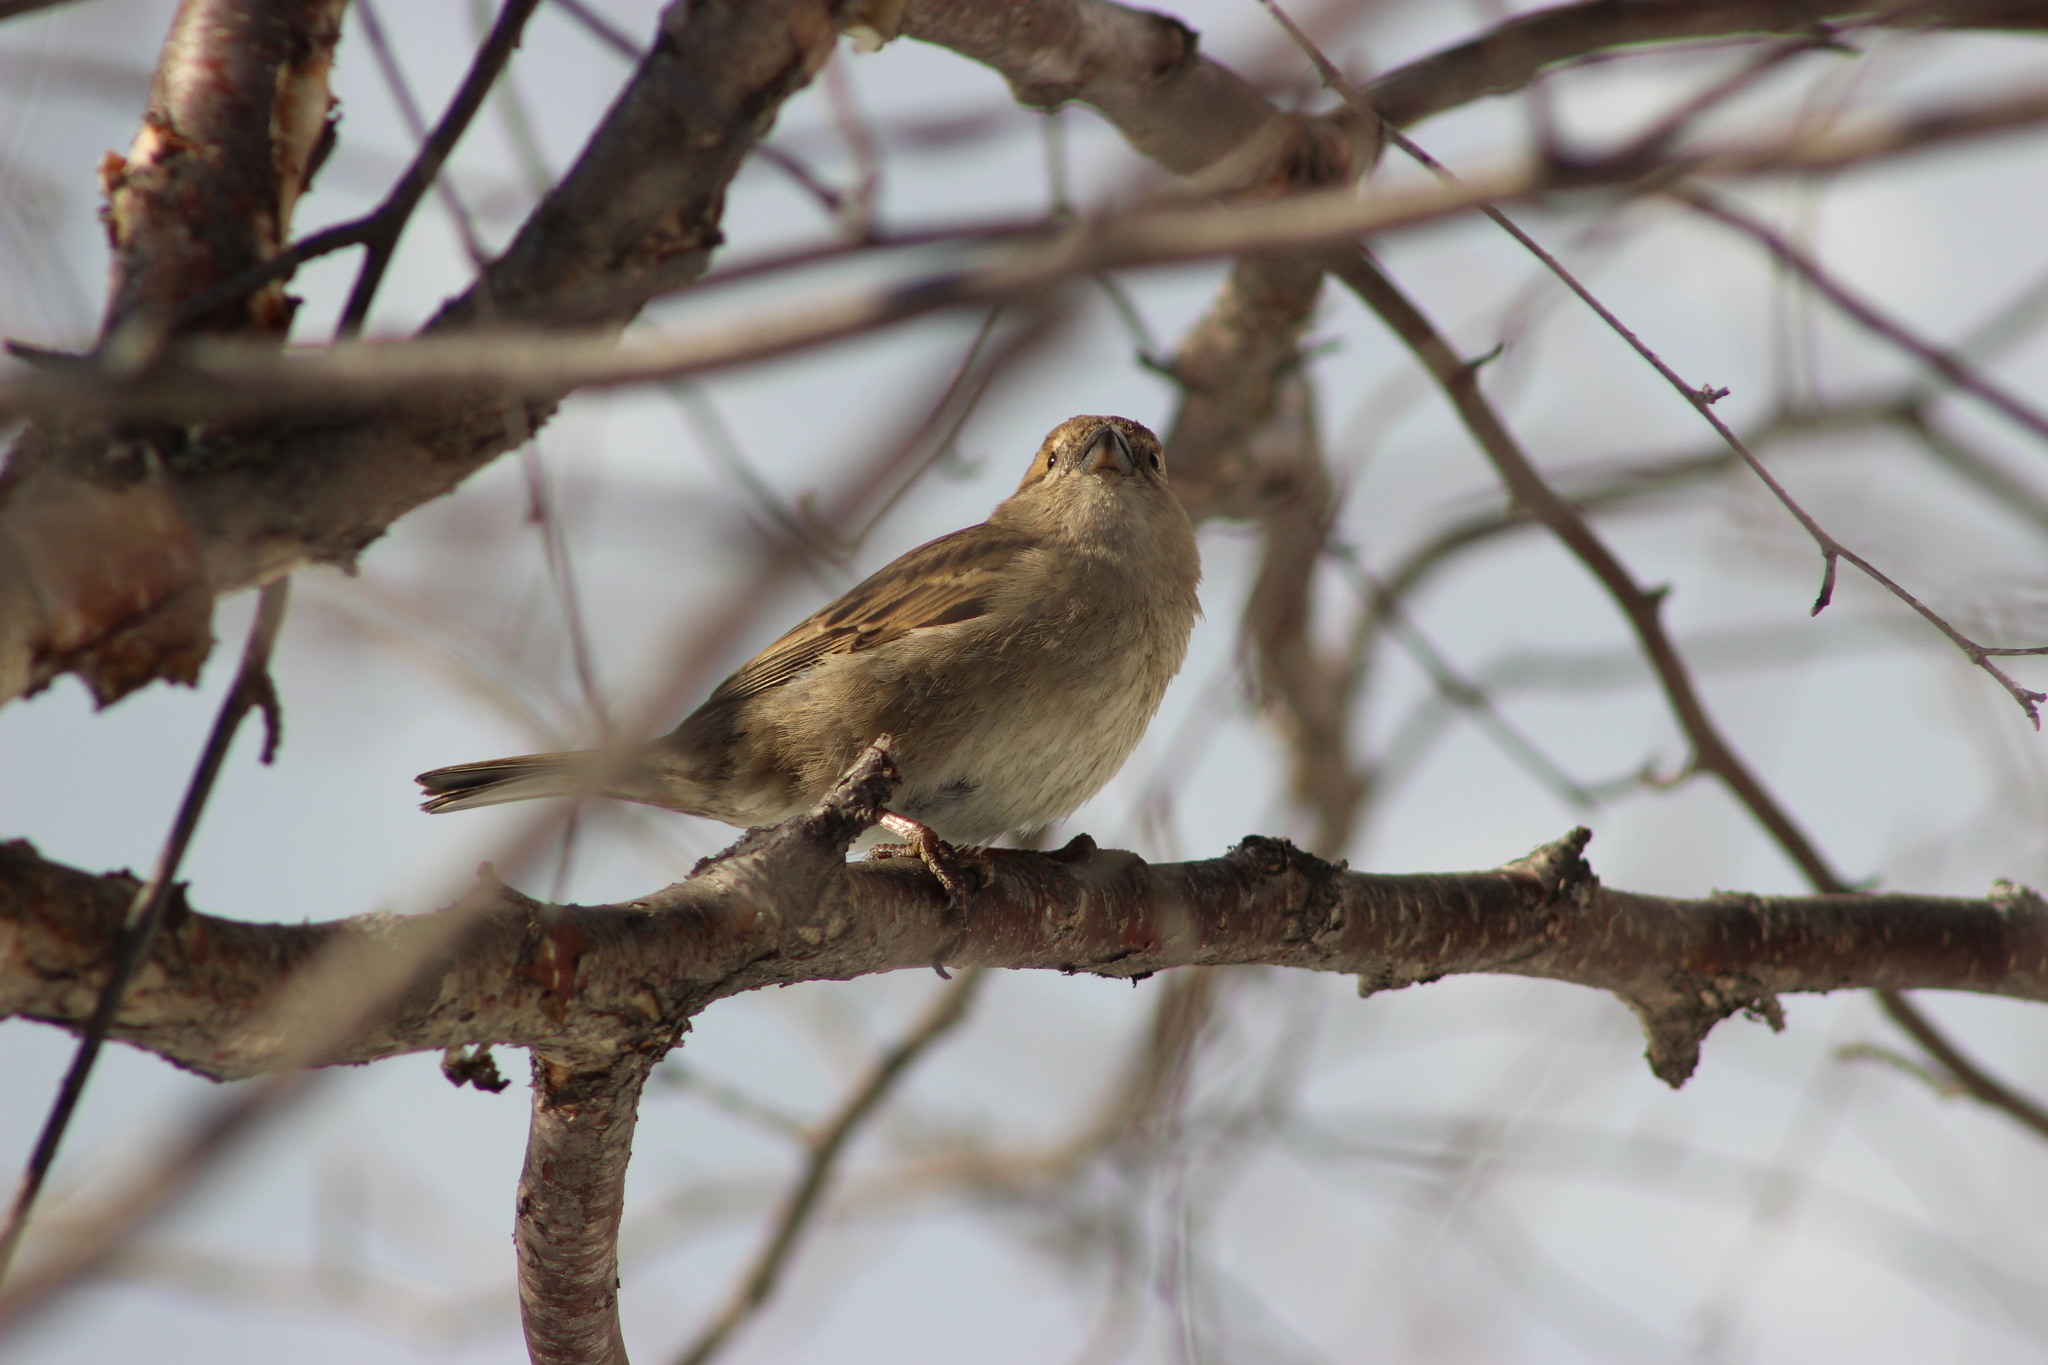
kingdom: Animalia
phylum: Chordata
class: Aves
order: Passeriformes
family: Passeridae
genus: Passer
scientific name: Passer domesticus
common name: House sparrow
